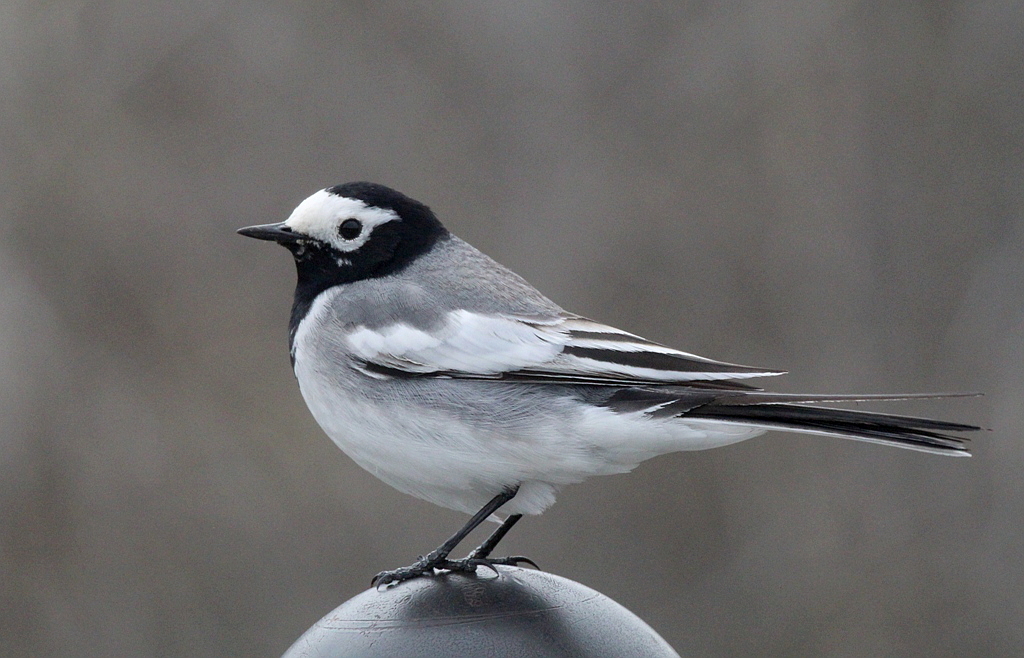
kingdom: Animalia
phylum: Chordata
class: Aves
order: Passeriformes
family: Motacillidae
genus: Motacilla
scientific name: Motacilla alba
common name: White wagtail
